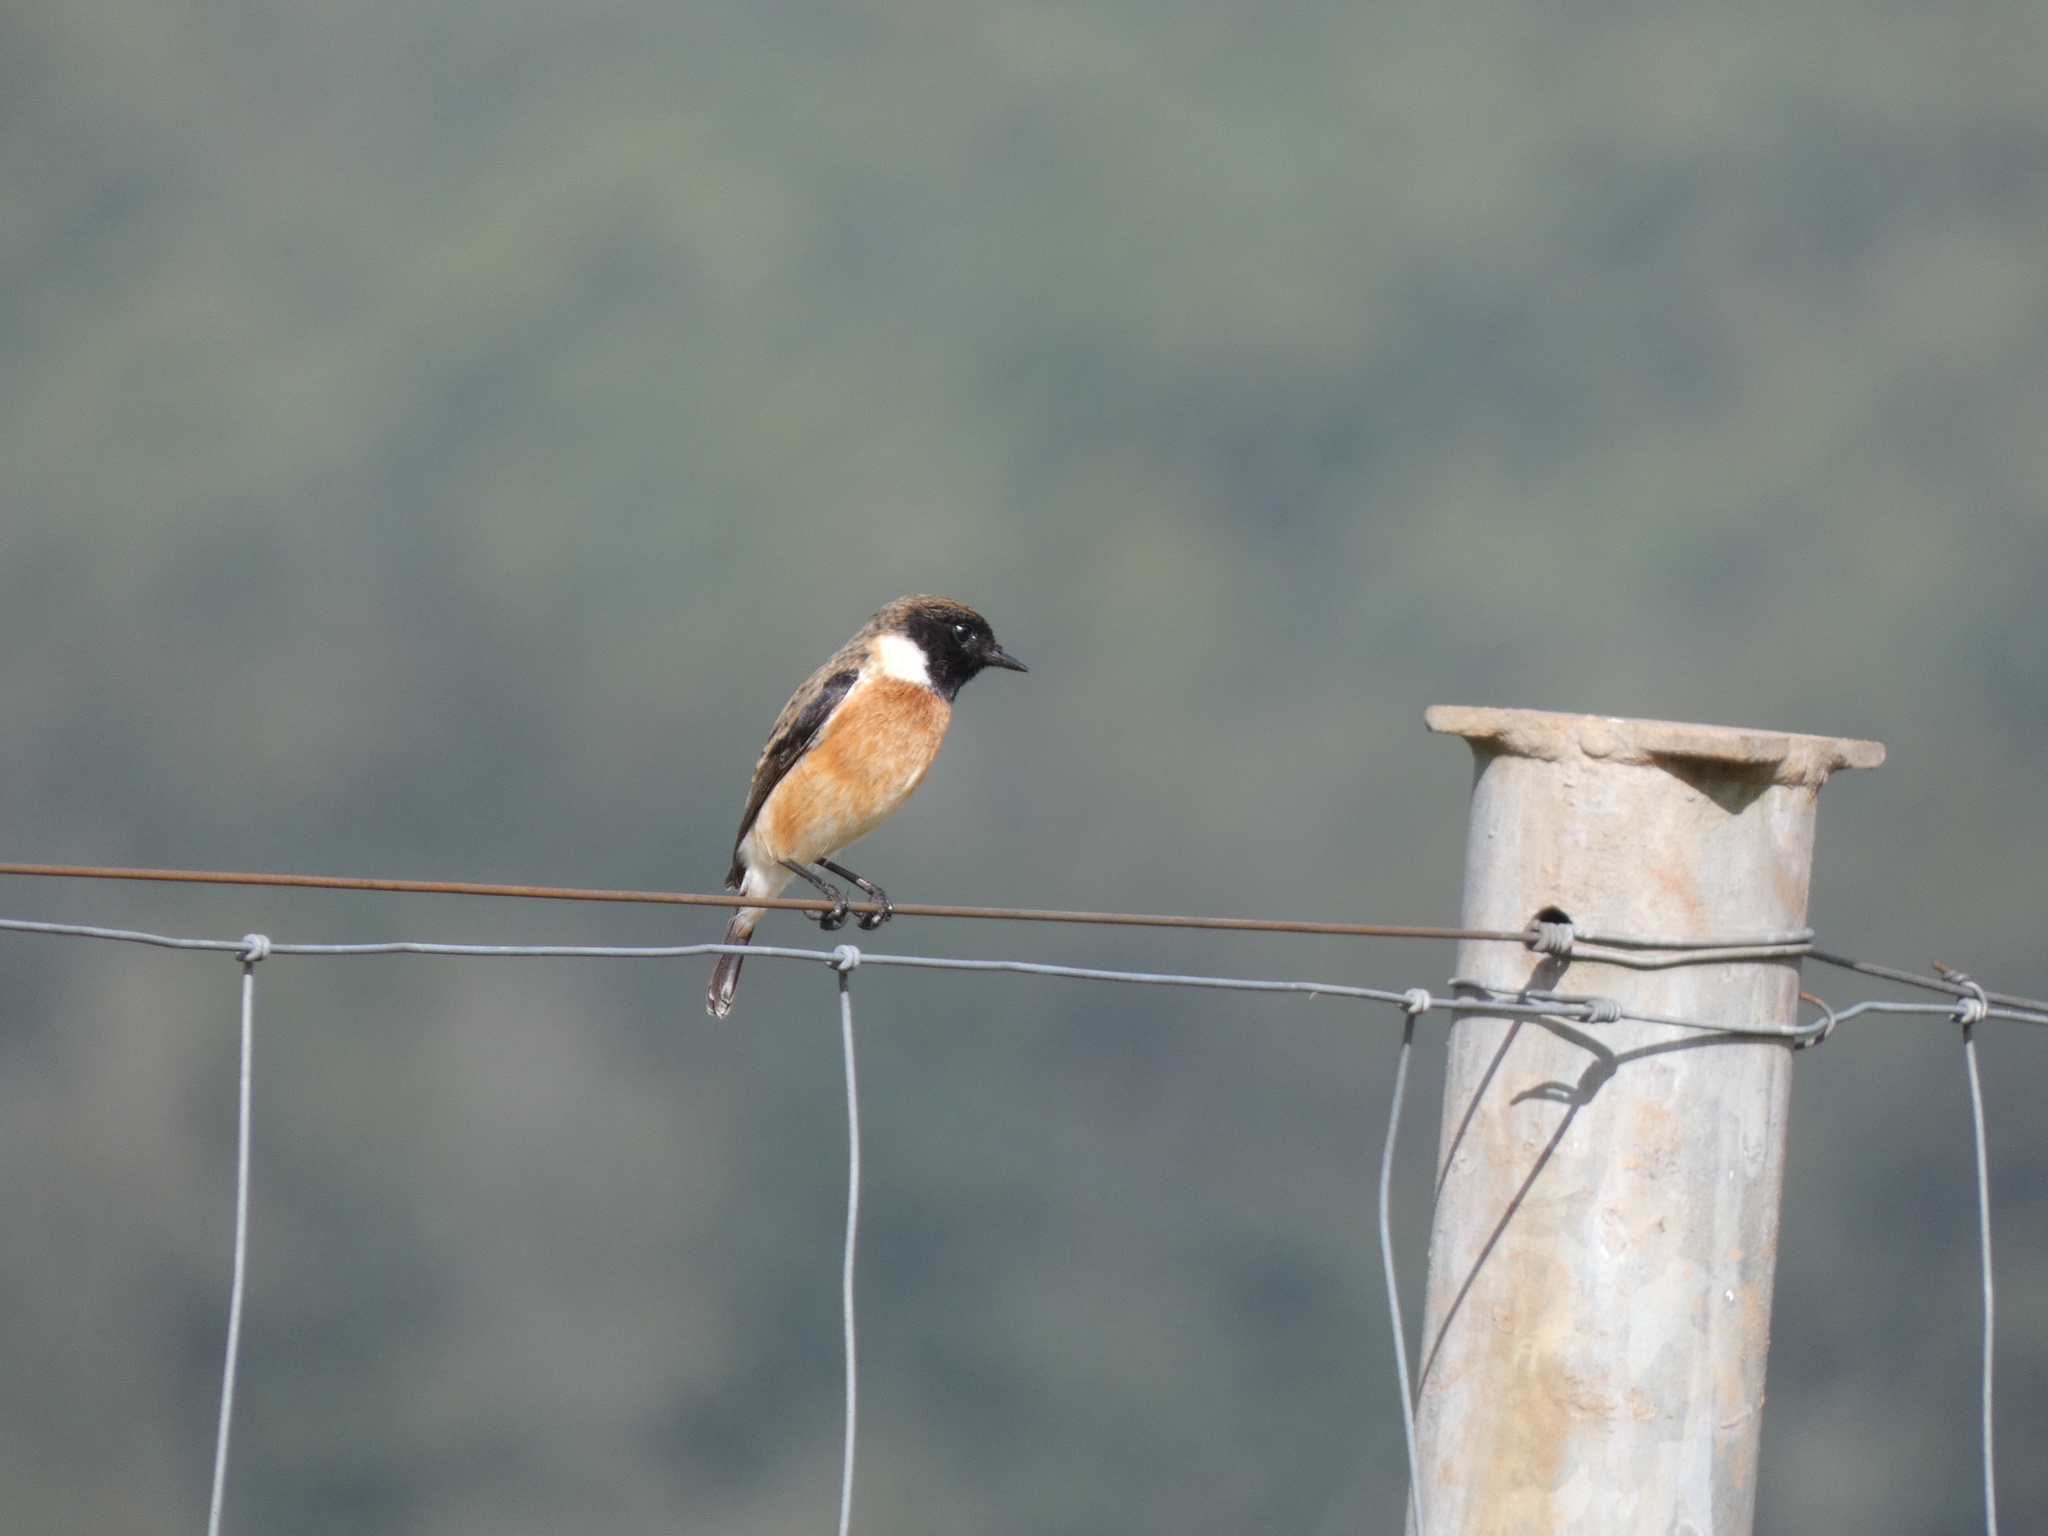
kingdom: Animalia
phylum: Chordata
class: Aves
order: Passeriformes
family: Muscicapidae
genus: Saxicola
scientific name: Saxicola torquatus
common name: African stonechat
